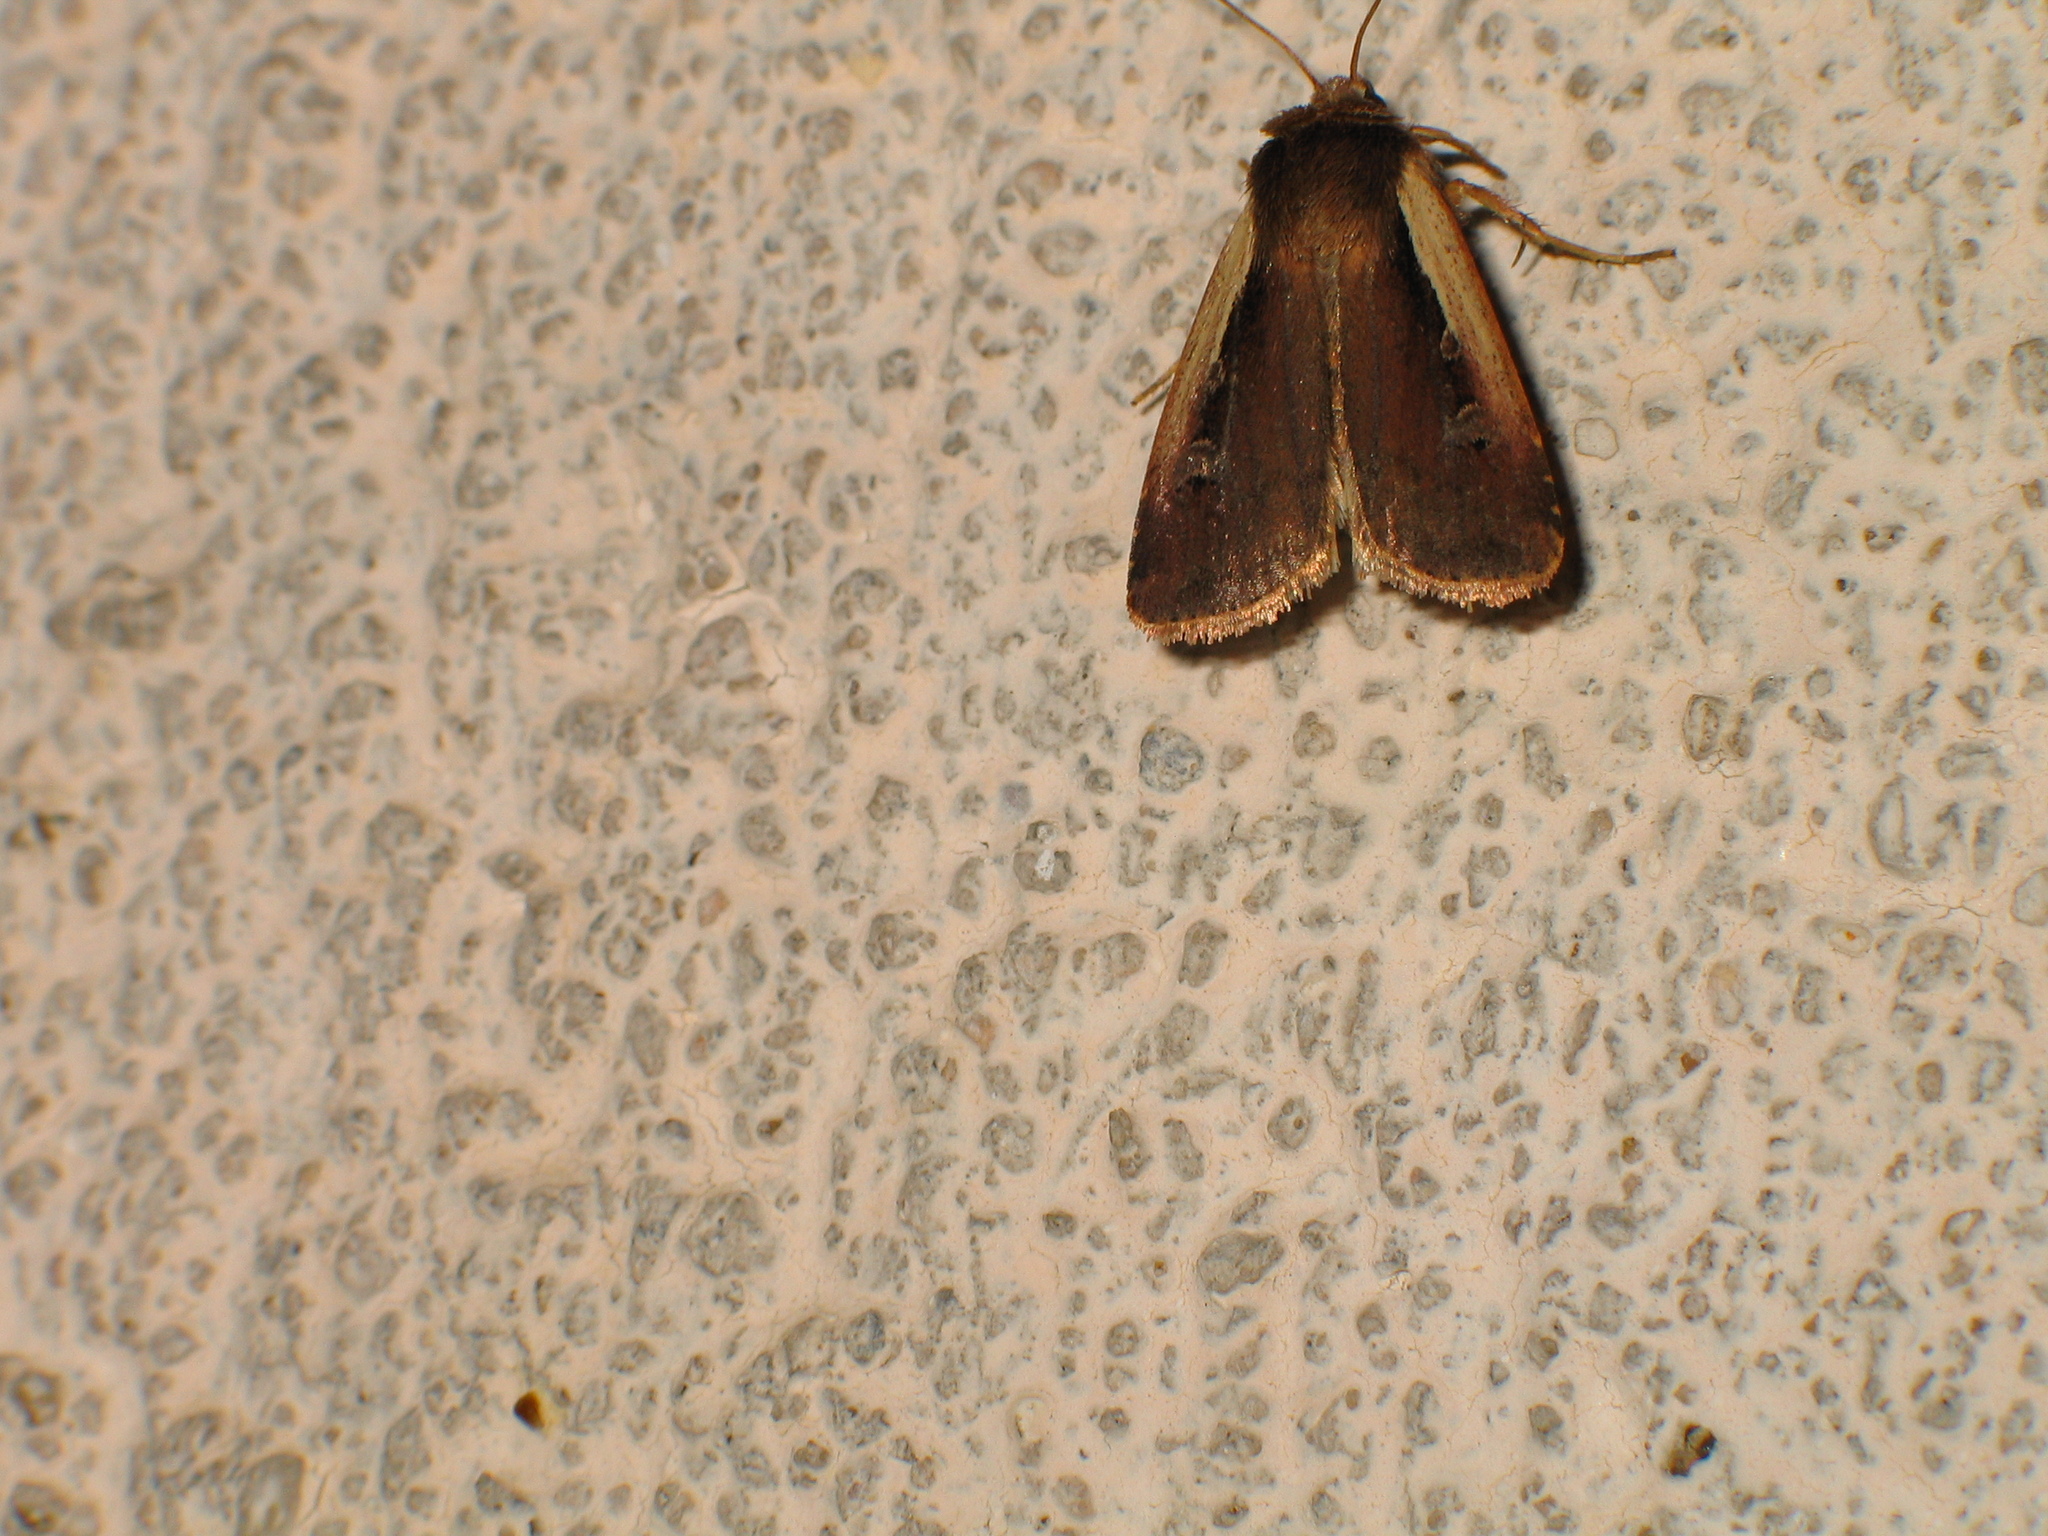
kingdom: Animalia
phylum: Arthropoda
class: Insecta
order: Lepidoptera
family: Noctuidae
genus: Ochropleura
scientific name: Ochropleura plecta
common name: Flame shoulder
